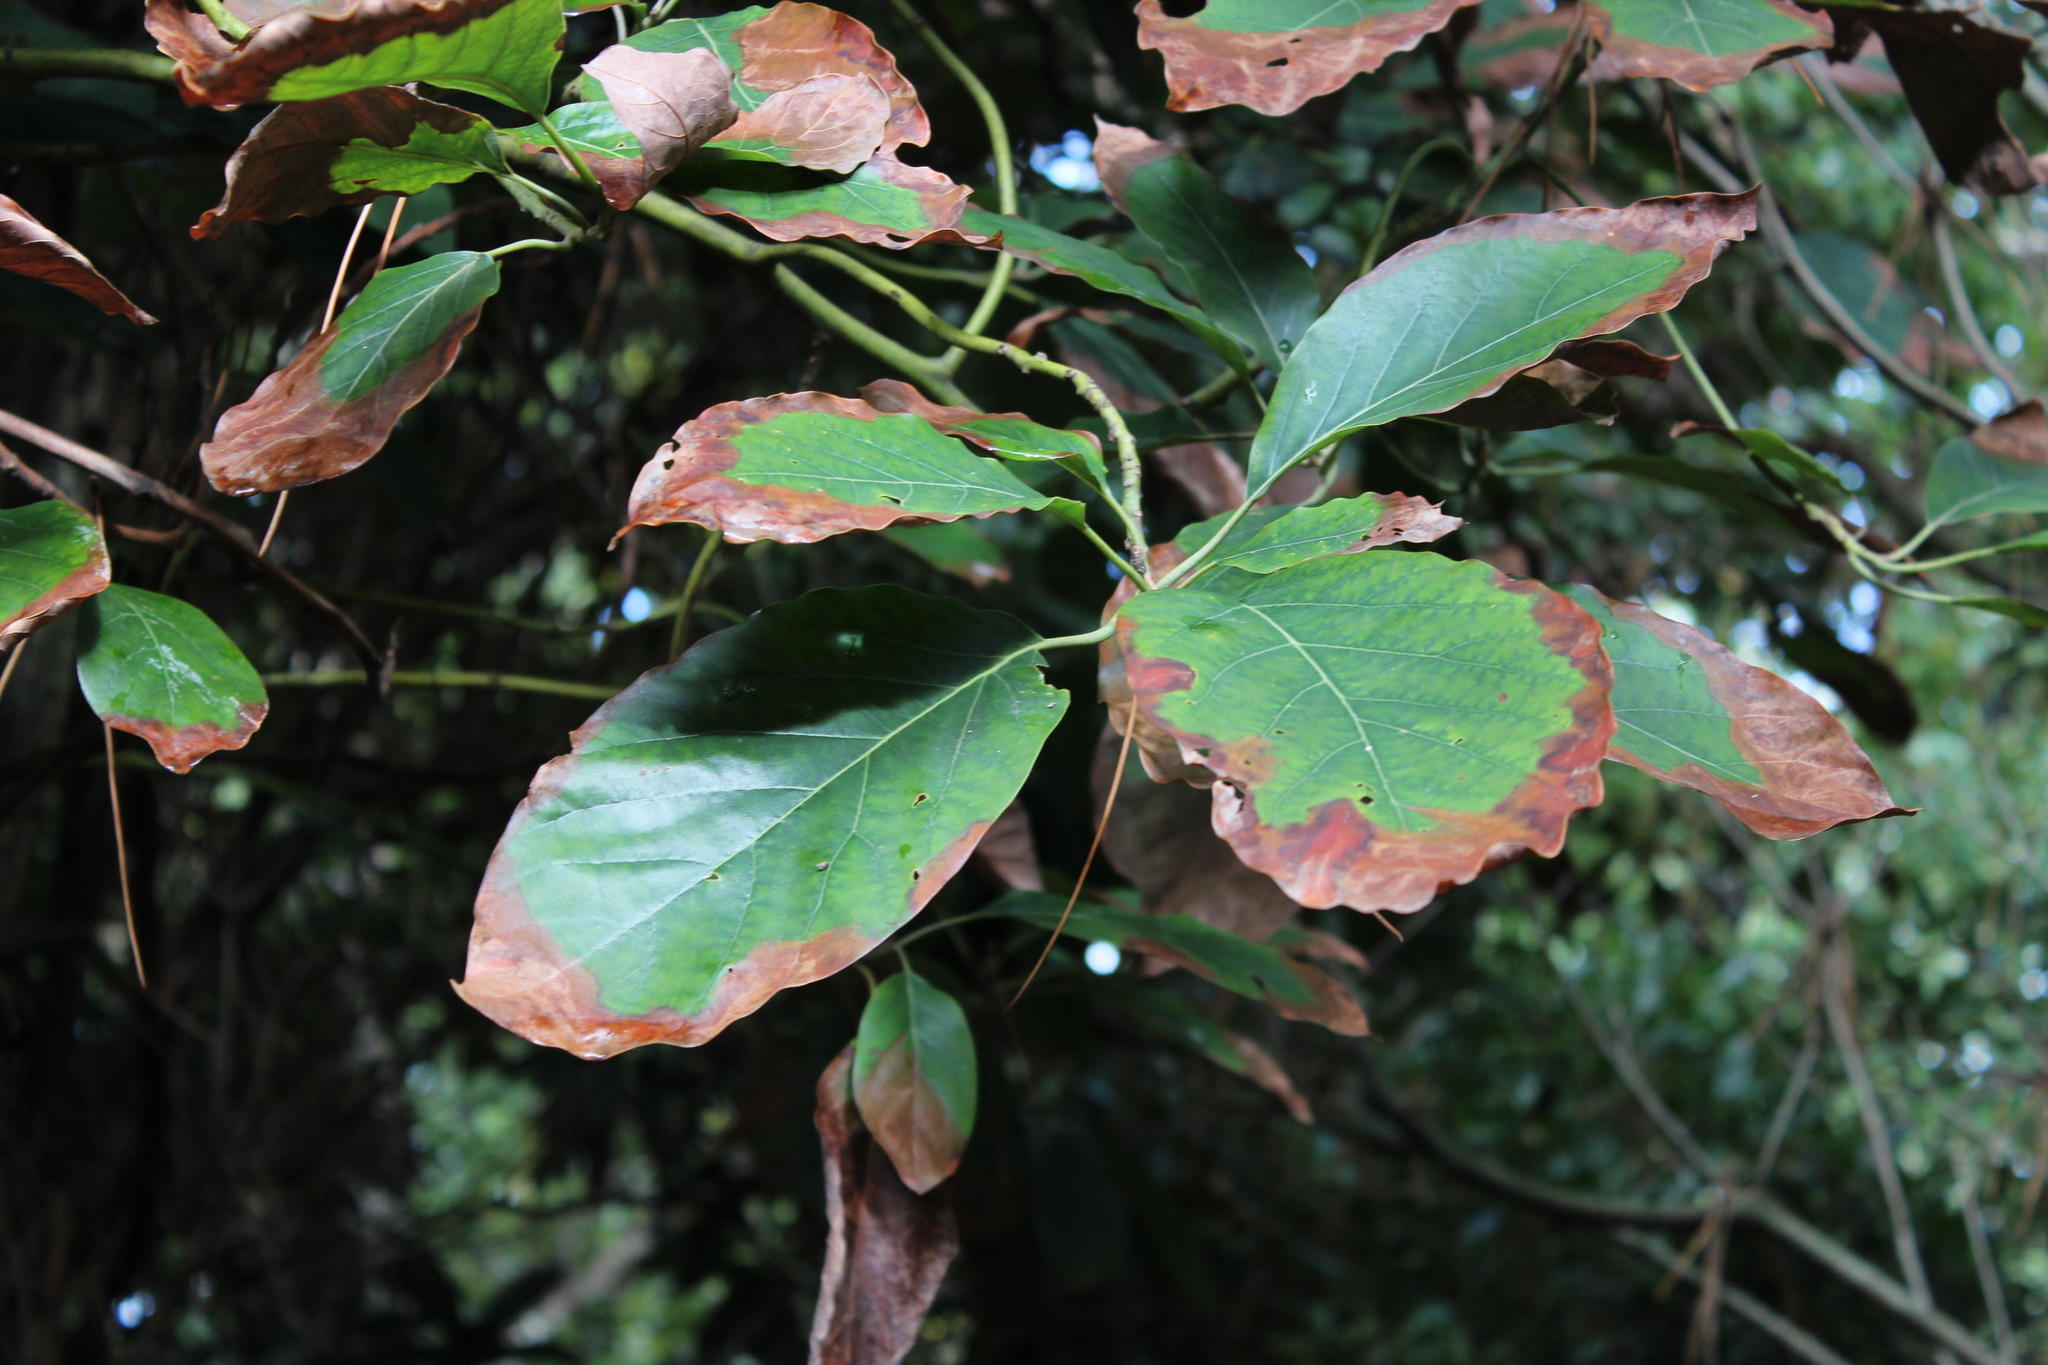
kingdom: Plantae
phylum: Tracheophyta
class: Magnoliopsida
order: Laurales
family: Lauraceae
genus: Persea
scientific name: Persea americana
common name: Avocado
